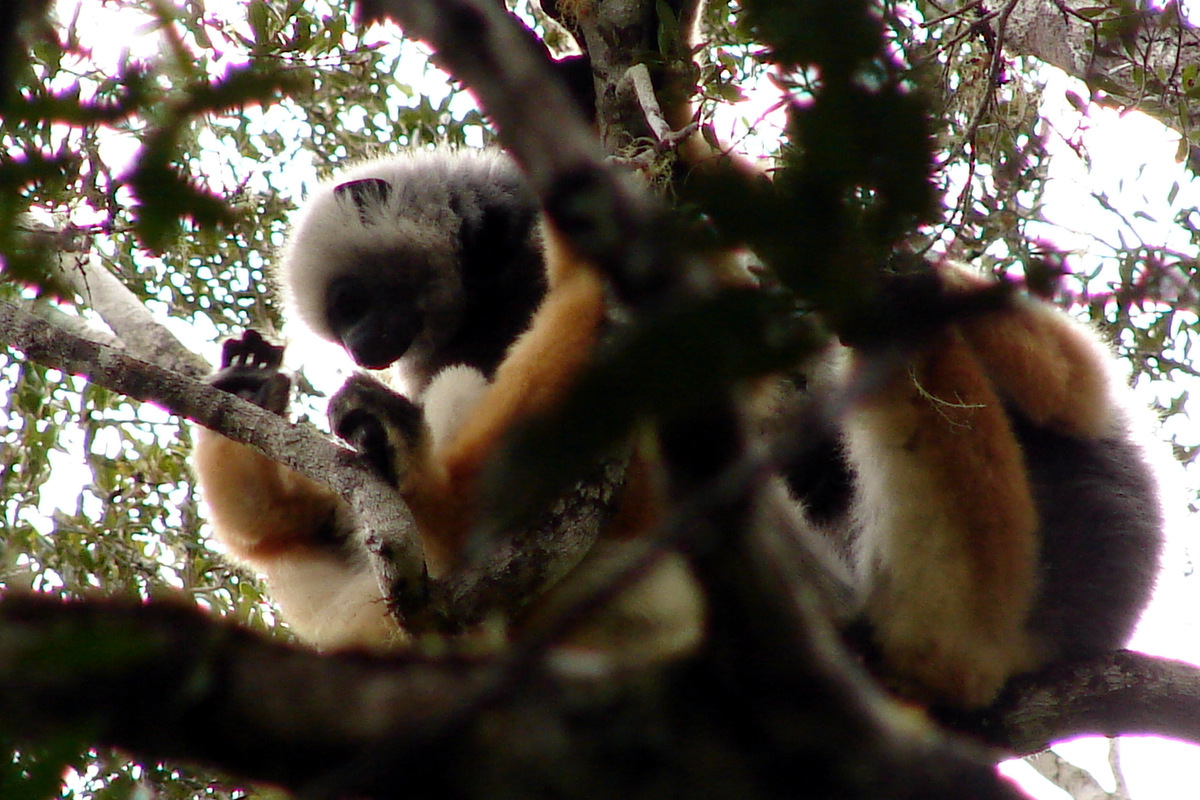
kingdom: Animalia
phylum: Chordata
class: Mammalia
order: Primates
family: Indriidae
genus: Propithecus
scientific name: Propithecus diadema
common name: Diademed sifaka
